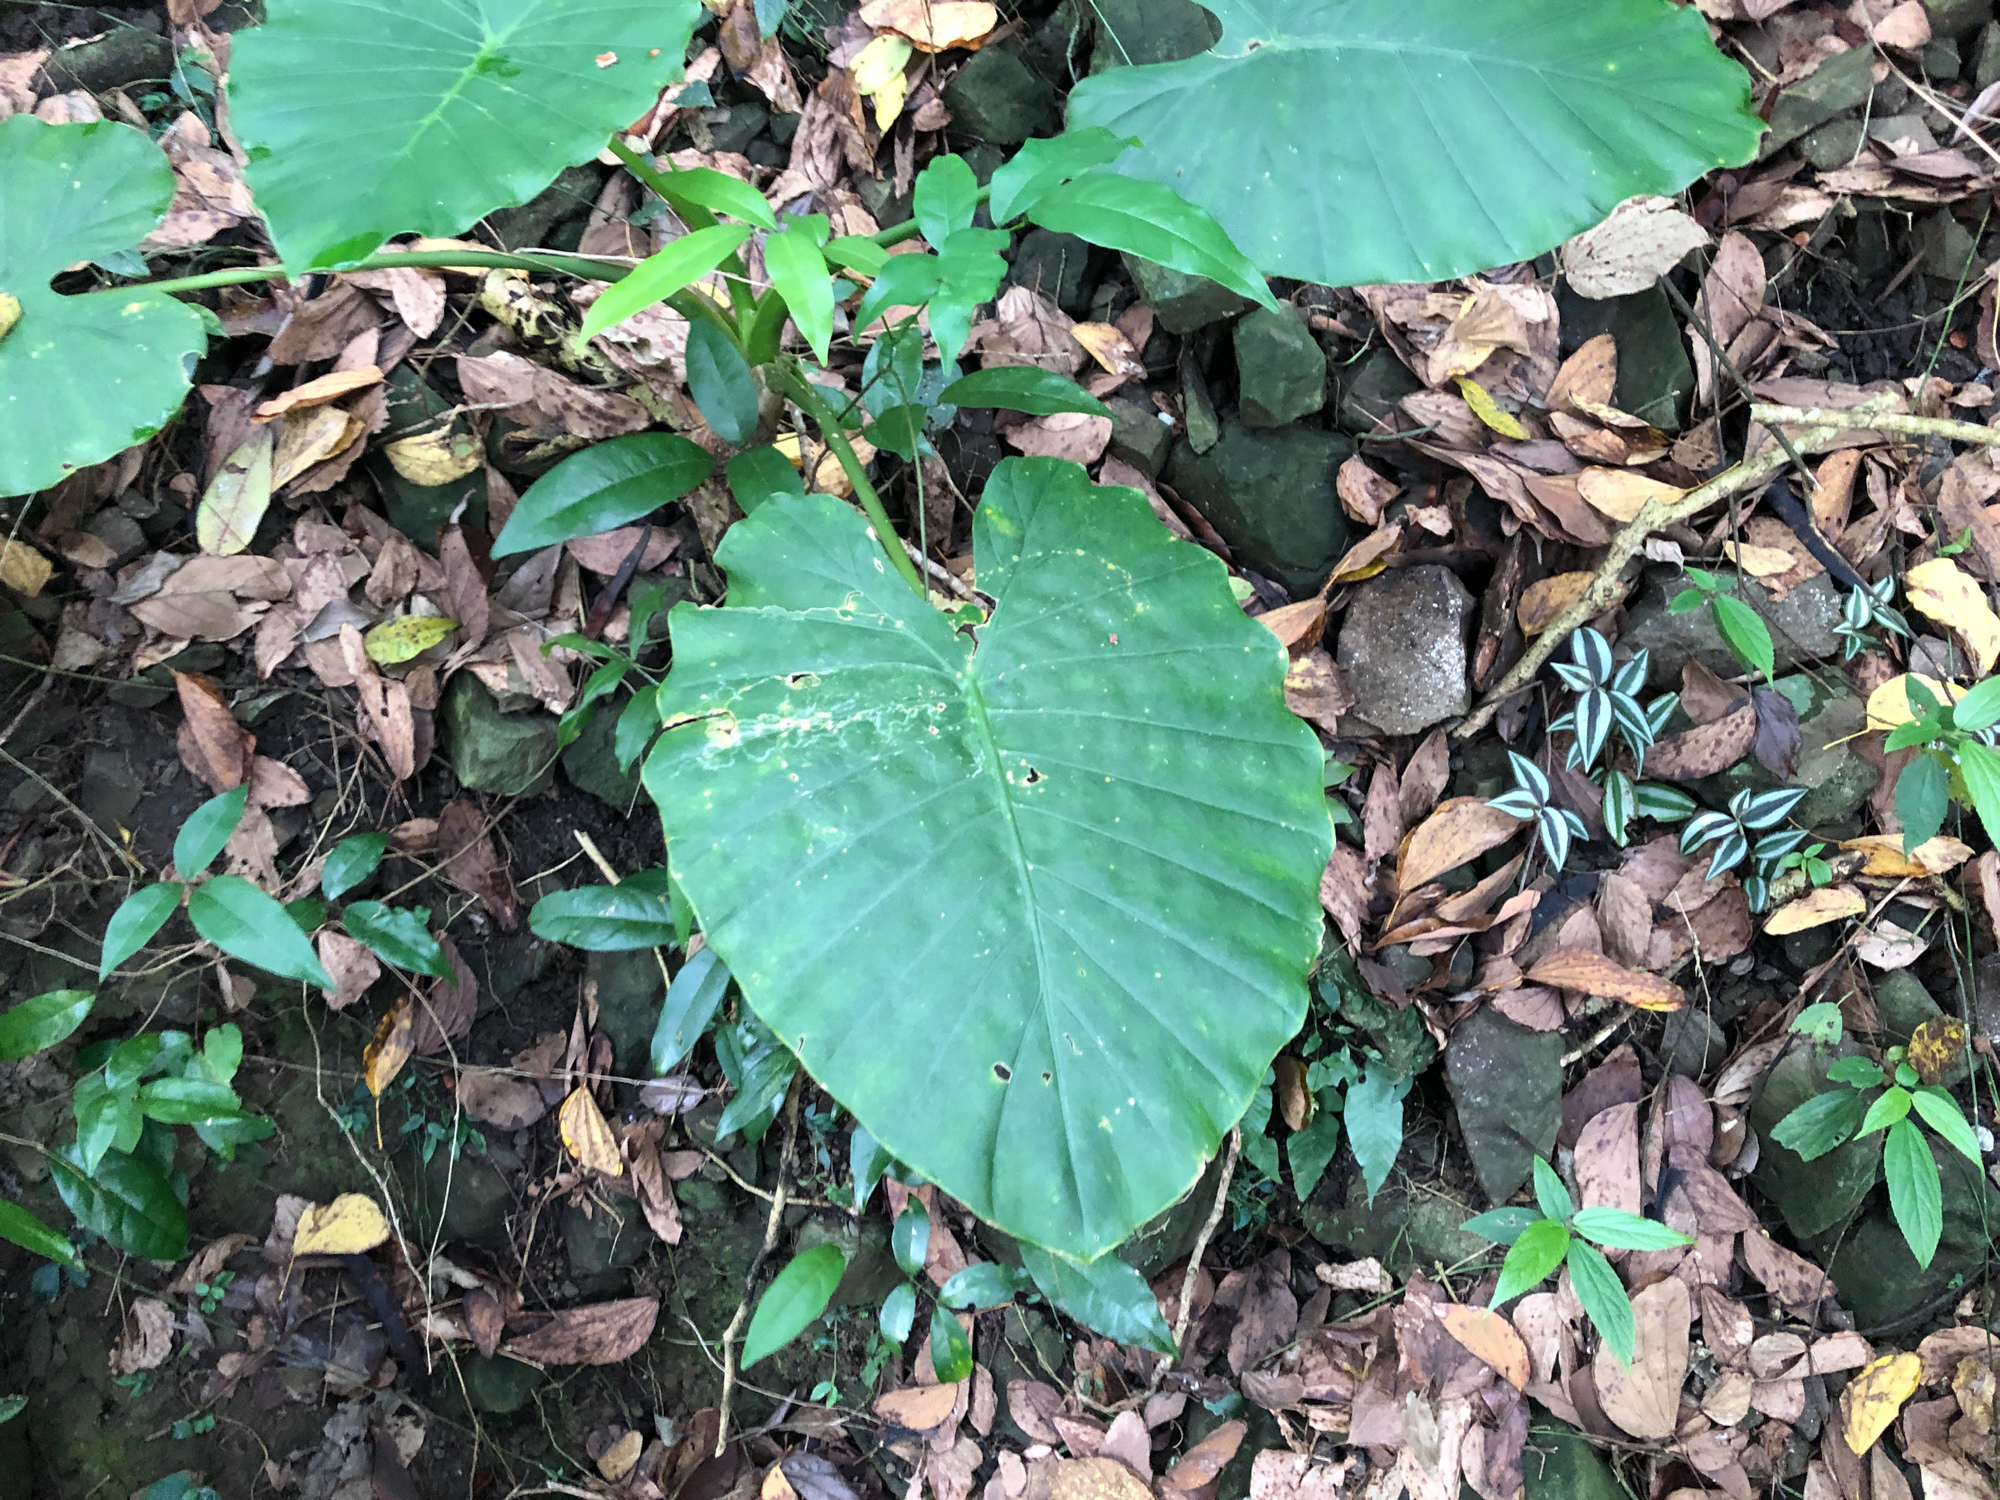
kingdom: Plantae
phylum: Tracheophyta
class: Liliopsida
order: Alismatales
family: Araceae
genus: Alocasia
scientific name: Alocasia odora
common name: Asian taro
